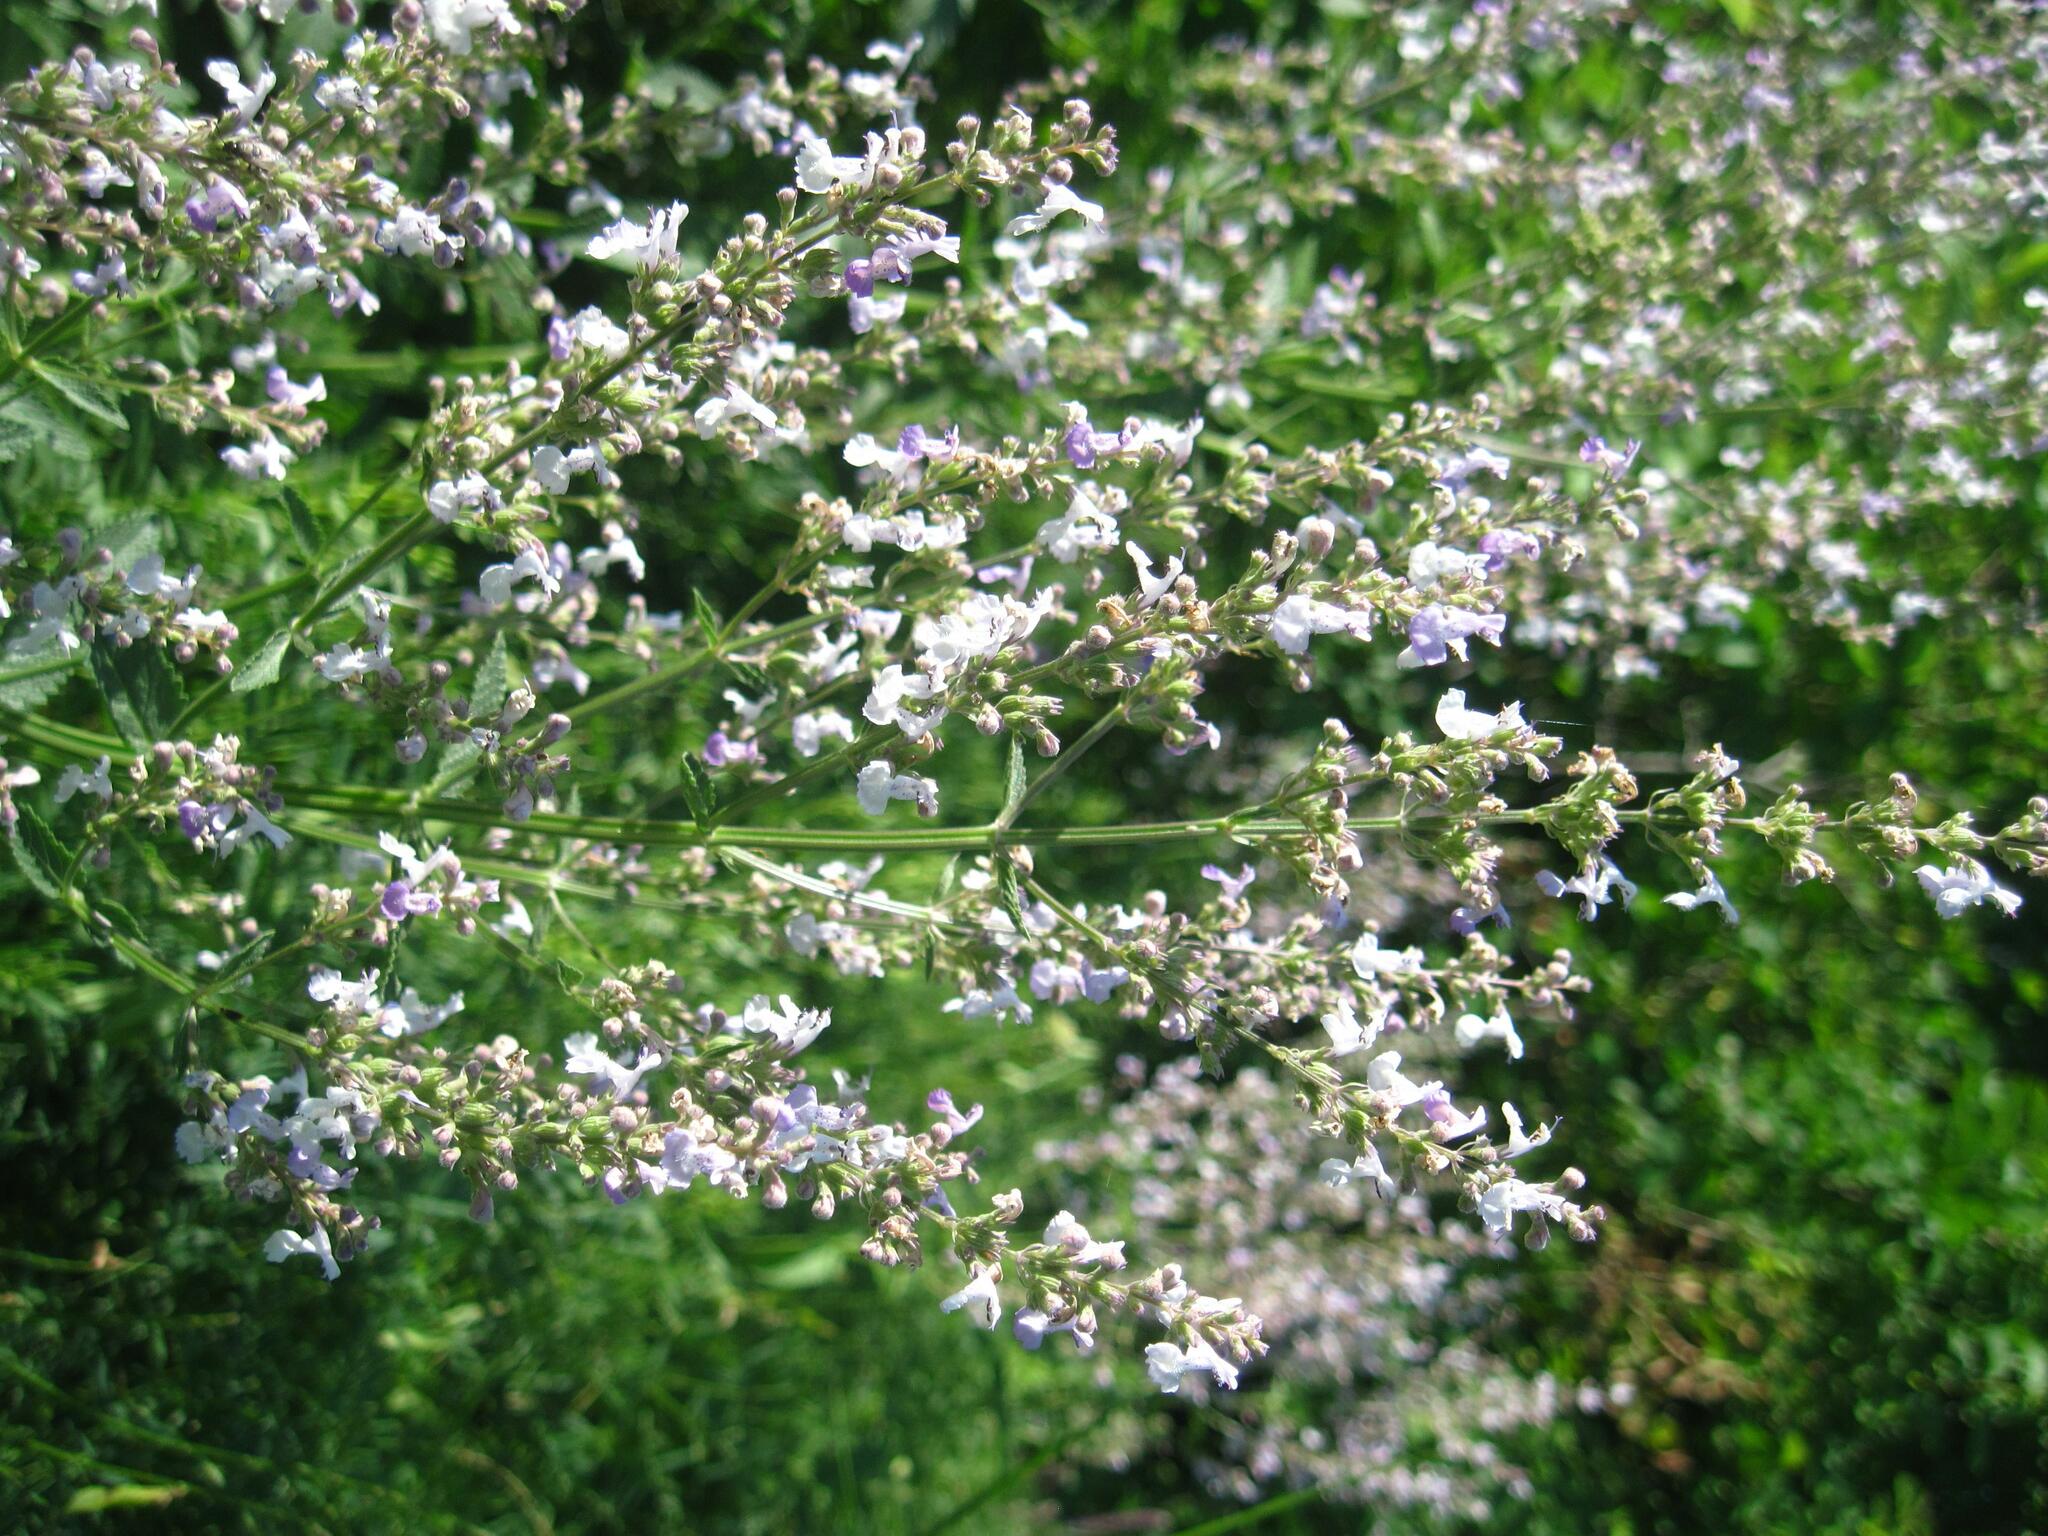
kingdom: Plantae
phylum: Tracheophyta
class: Magnoliopsida
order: Lamiales
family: Lamiaceae
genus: Nepeta
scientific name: Nepeta nuda
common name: Hairless catmint
